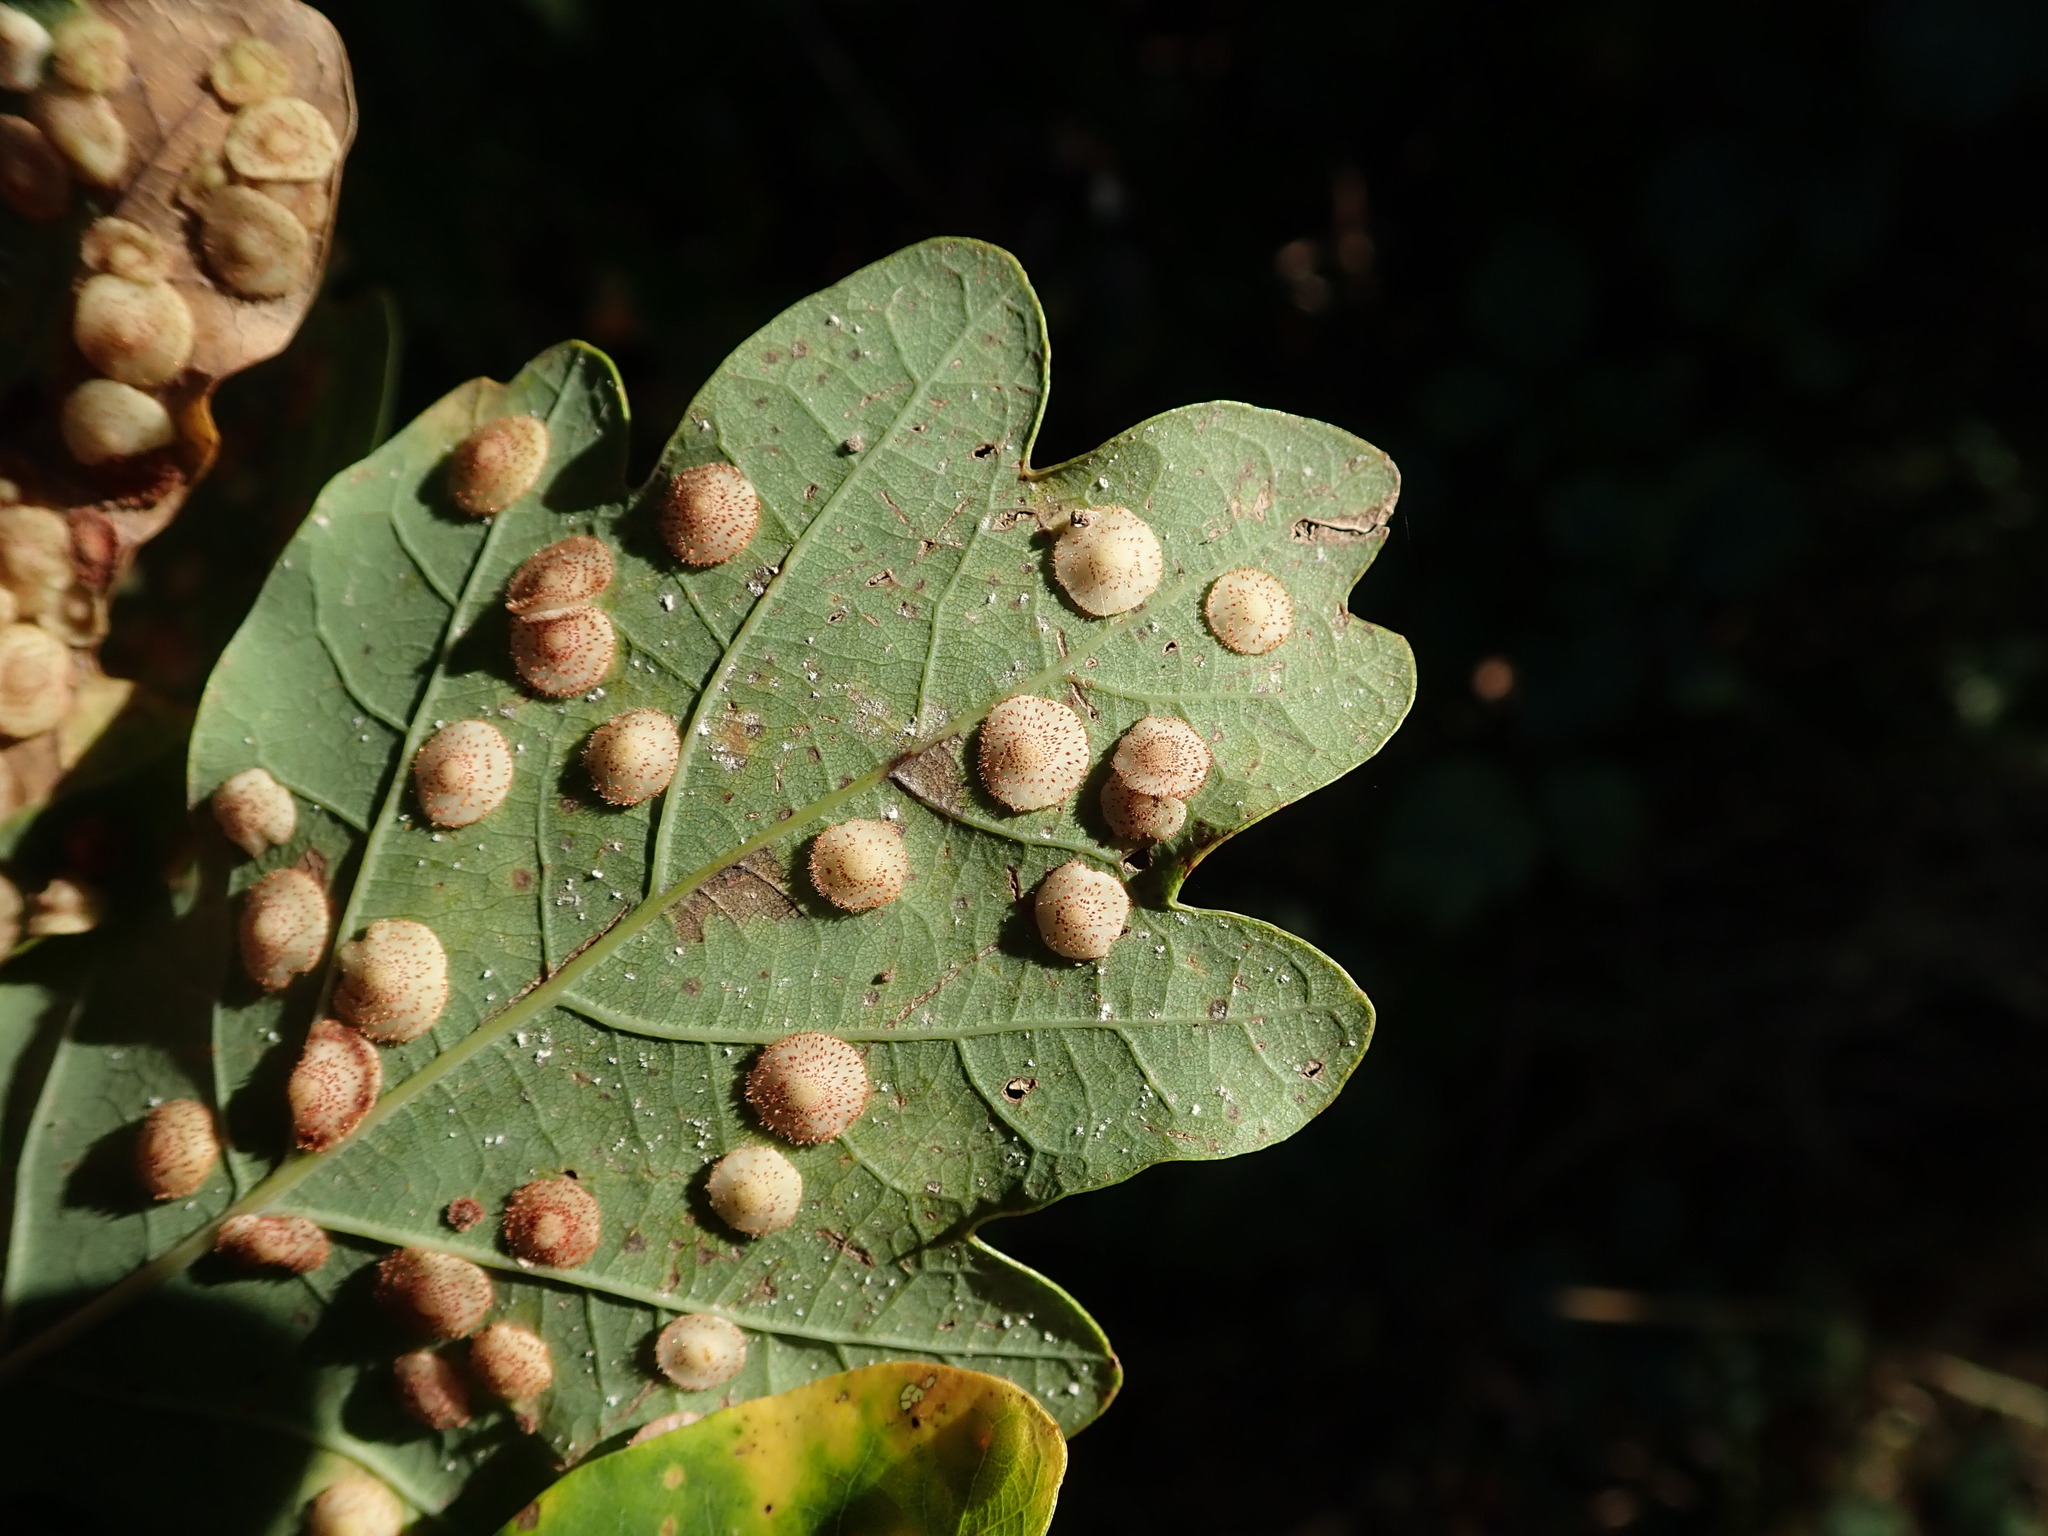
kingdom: Animalia
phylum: Arthropoda
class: Insecta
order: Hymenoptera
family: Cynipidae
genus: Neuroterus
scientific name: Neuroterus quercusbaccarum
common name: Common spangle gall
